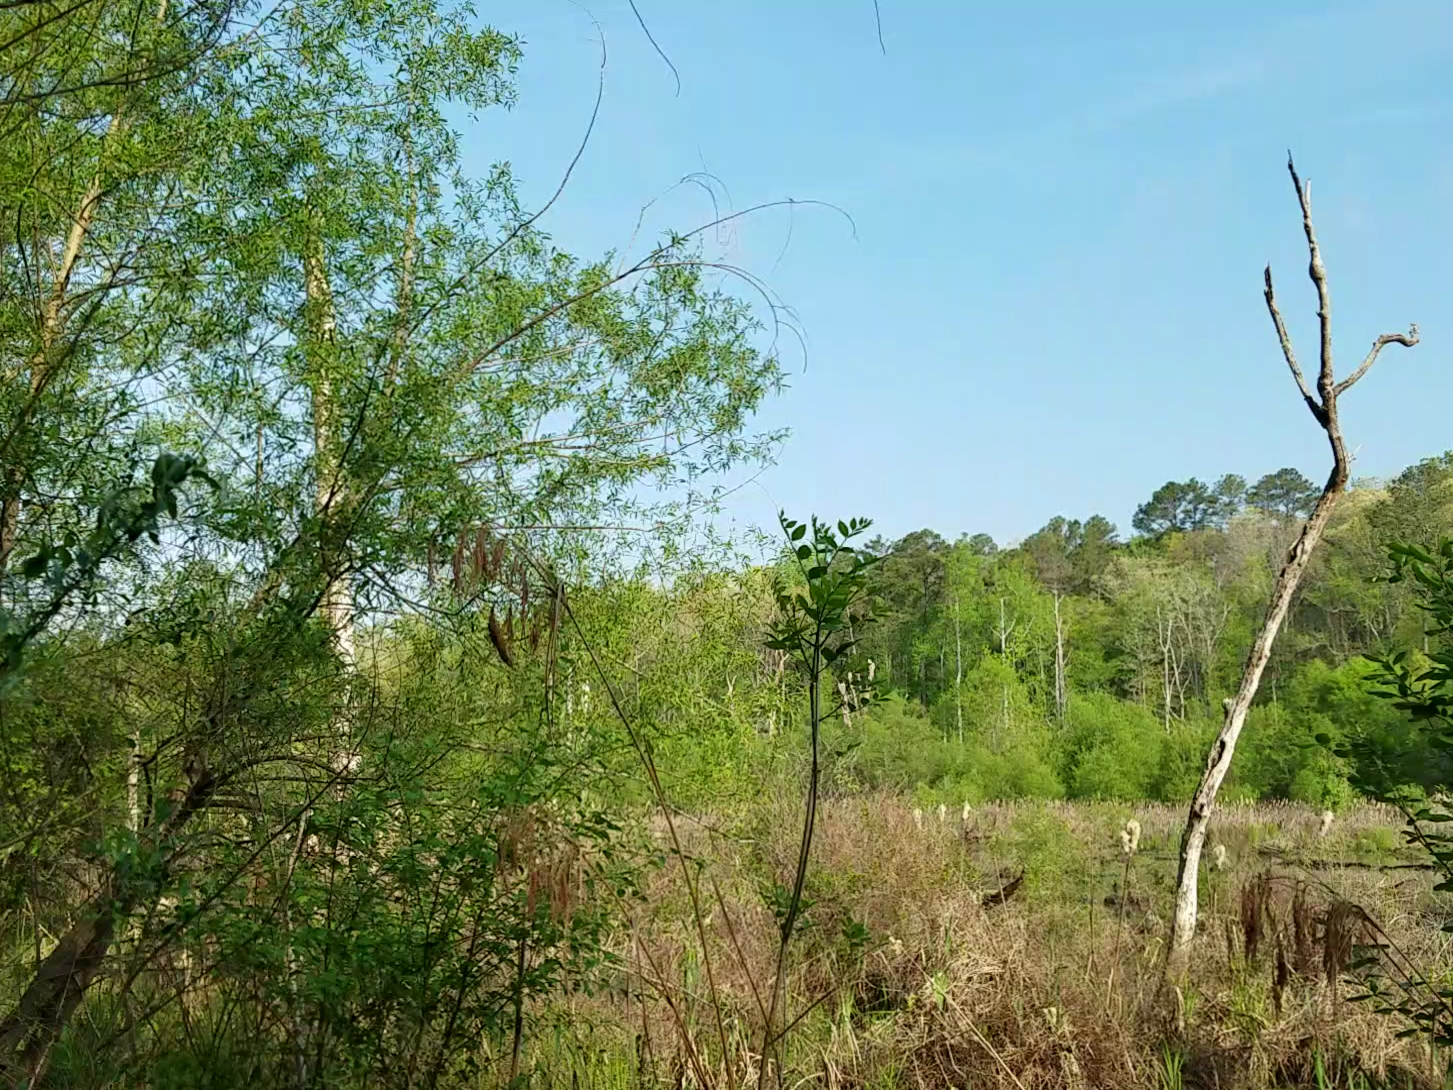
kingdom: Animalia
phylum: Chordata
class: Aves
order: Passeriformes
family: Parulidae
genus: Geothlypis
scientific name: Geothlypis trichas
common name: Common yellowthroat
